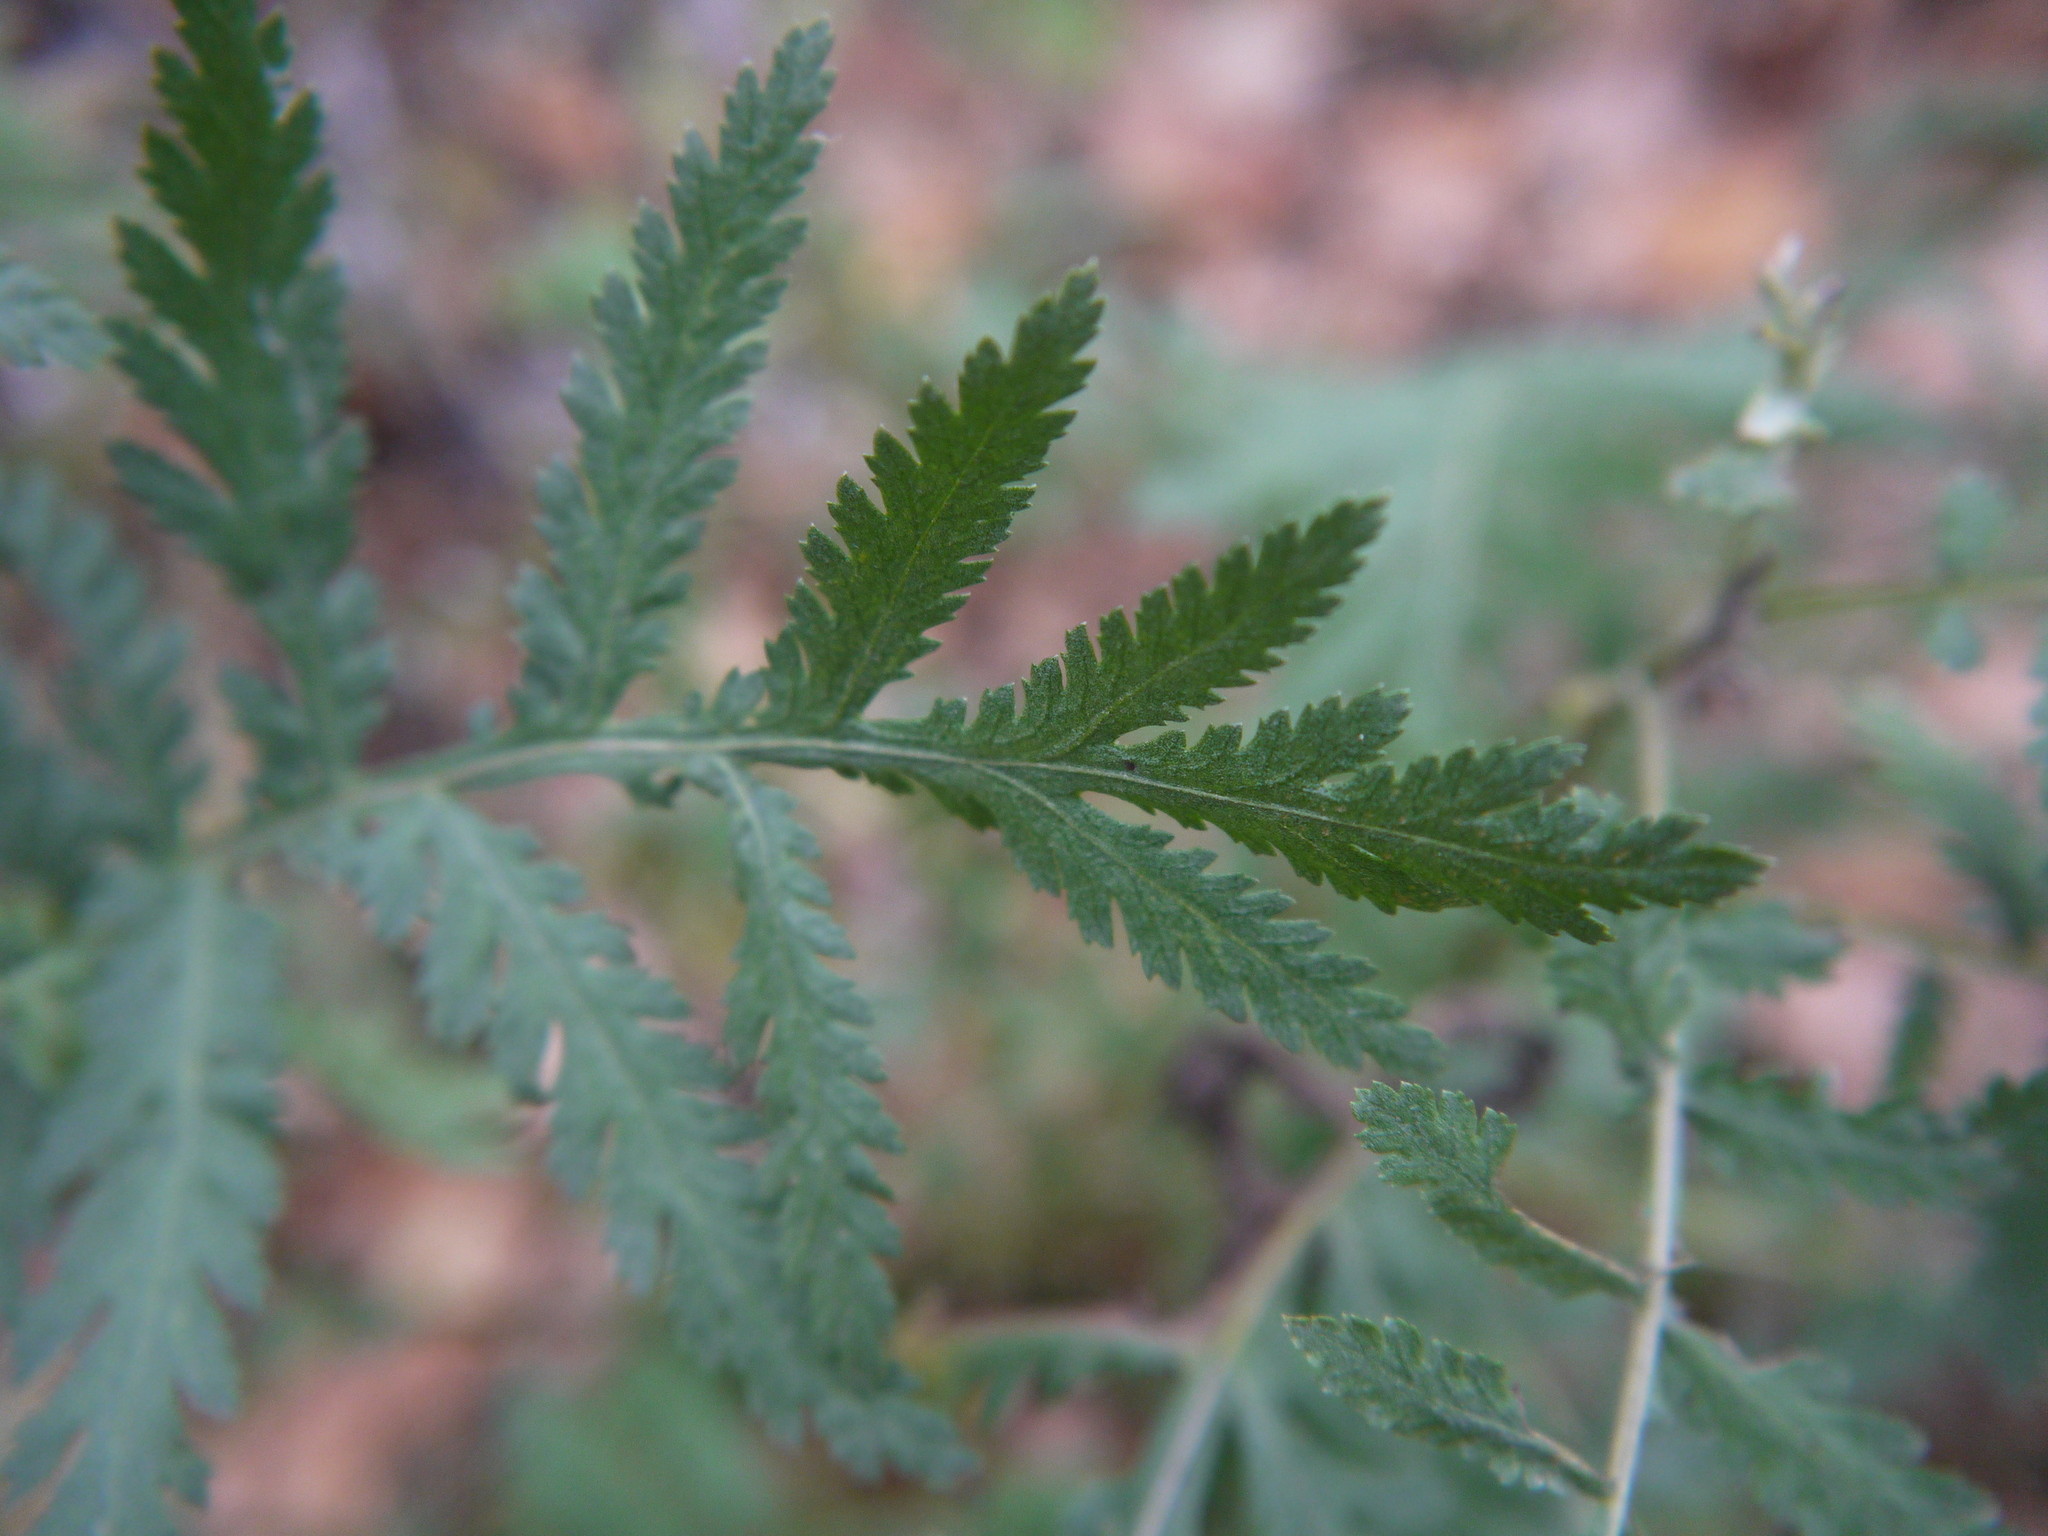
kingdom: Plantae
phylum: Tracheophyta
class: Magnoliopsida
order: Asterales
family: Asteraceae
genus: Tanacetum
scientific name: Tanacetum vulgare
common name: Common tansy
